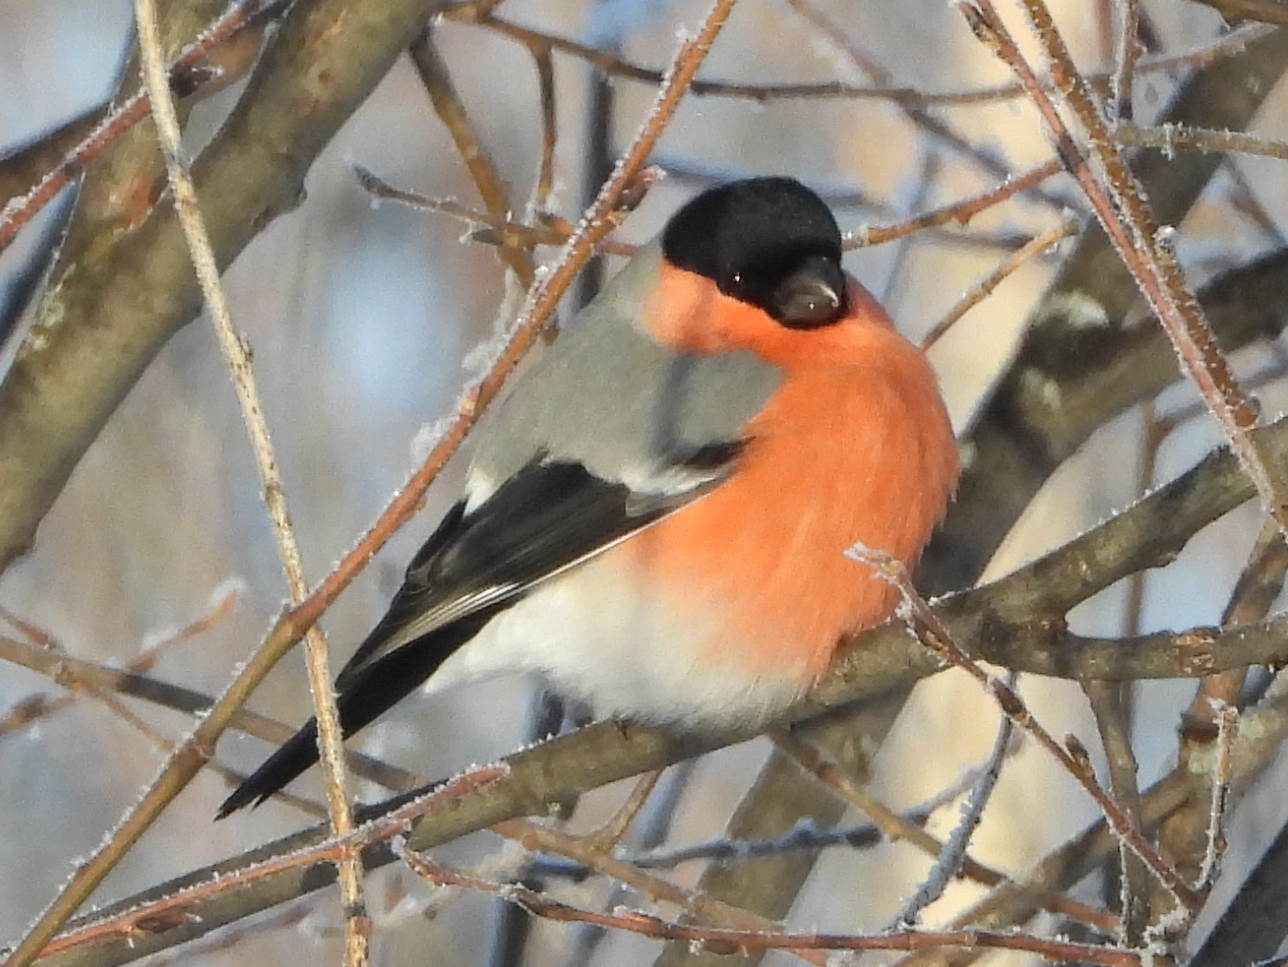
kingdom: Animalia
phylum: Chordata
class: Aves
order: Passeriformes
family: Fringillidae
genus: Pyrrhula
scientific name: Pyrrhula pyrrhula
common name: Eurasian bullfinch
